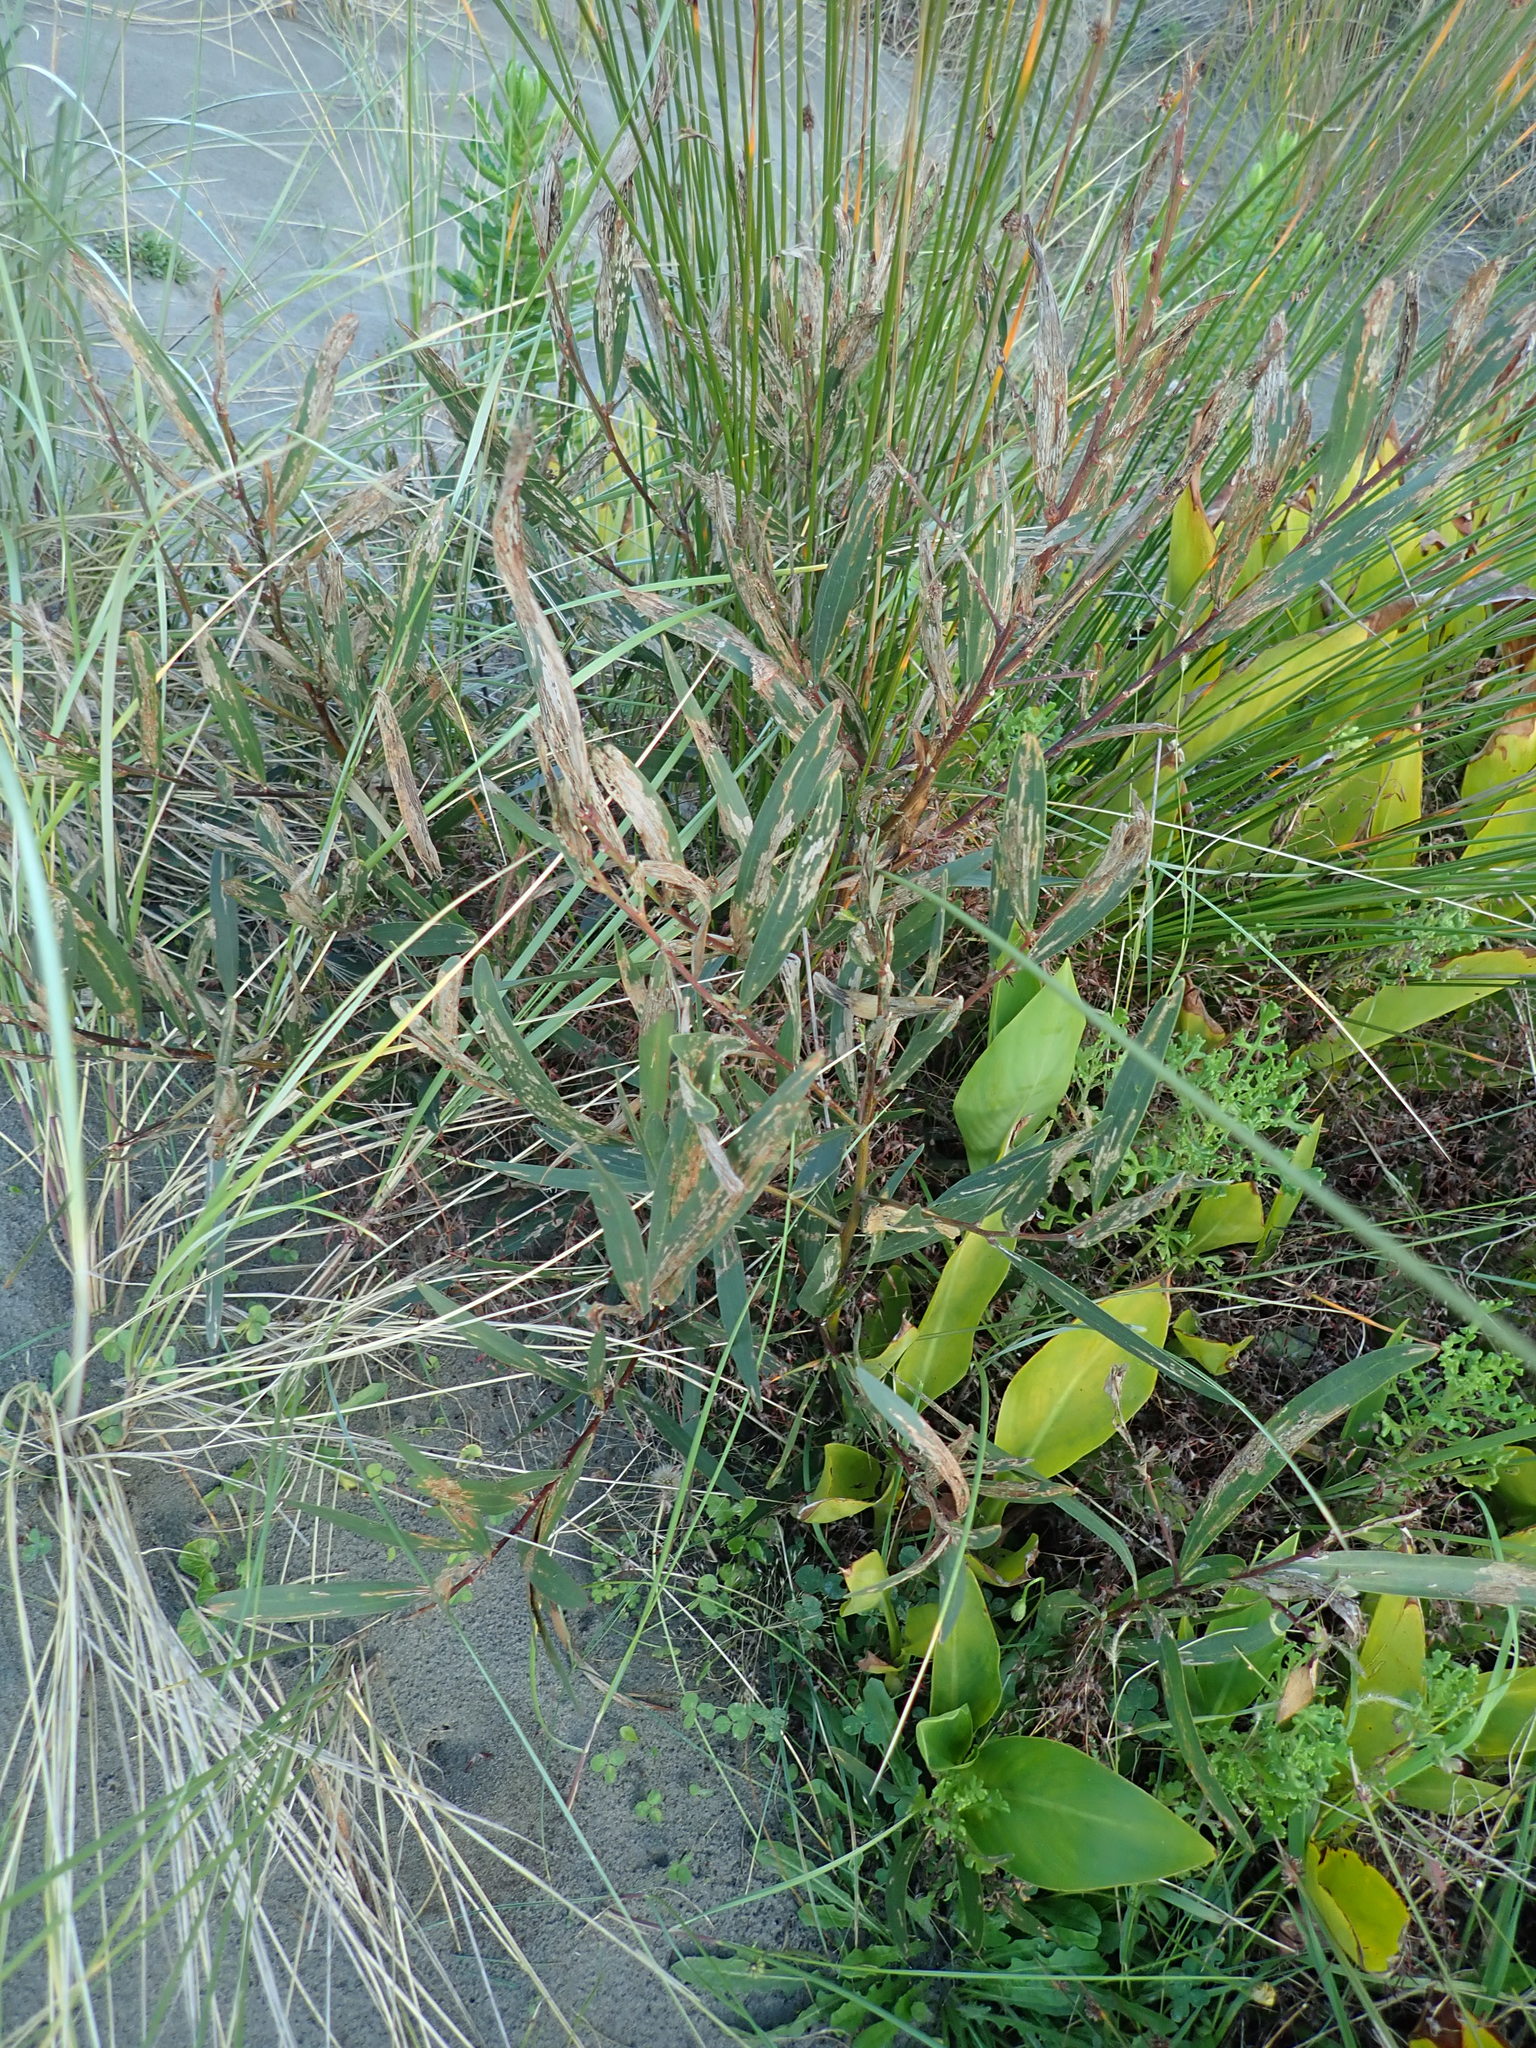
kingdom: Plantae
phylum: Tracheophyta
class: Magnoliopsida
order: Fabales
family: Fabaceae
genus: Acacia
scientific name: Acacia longifolia
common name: Sydney golden wattle
